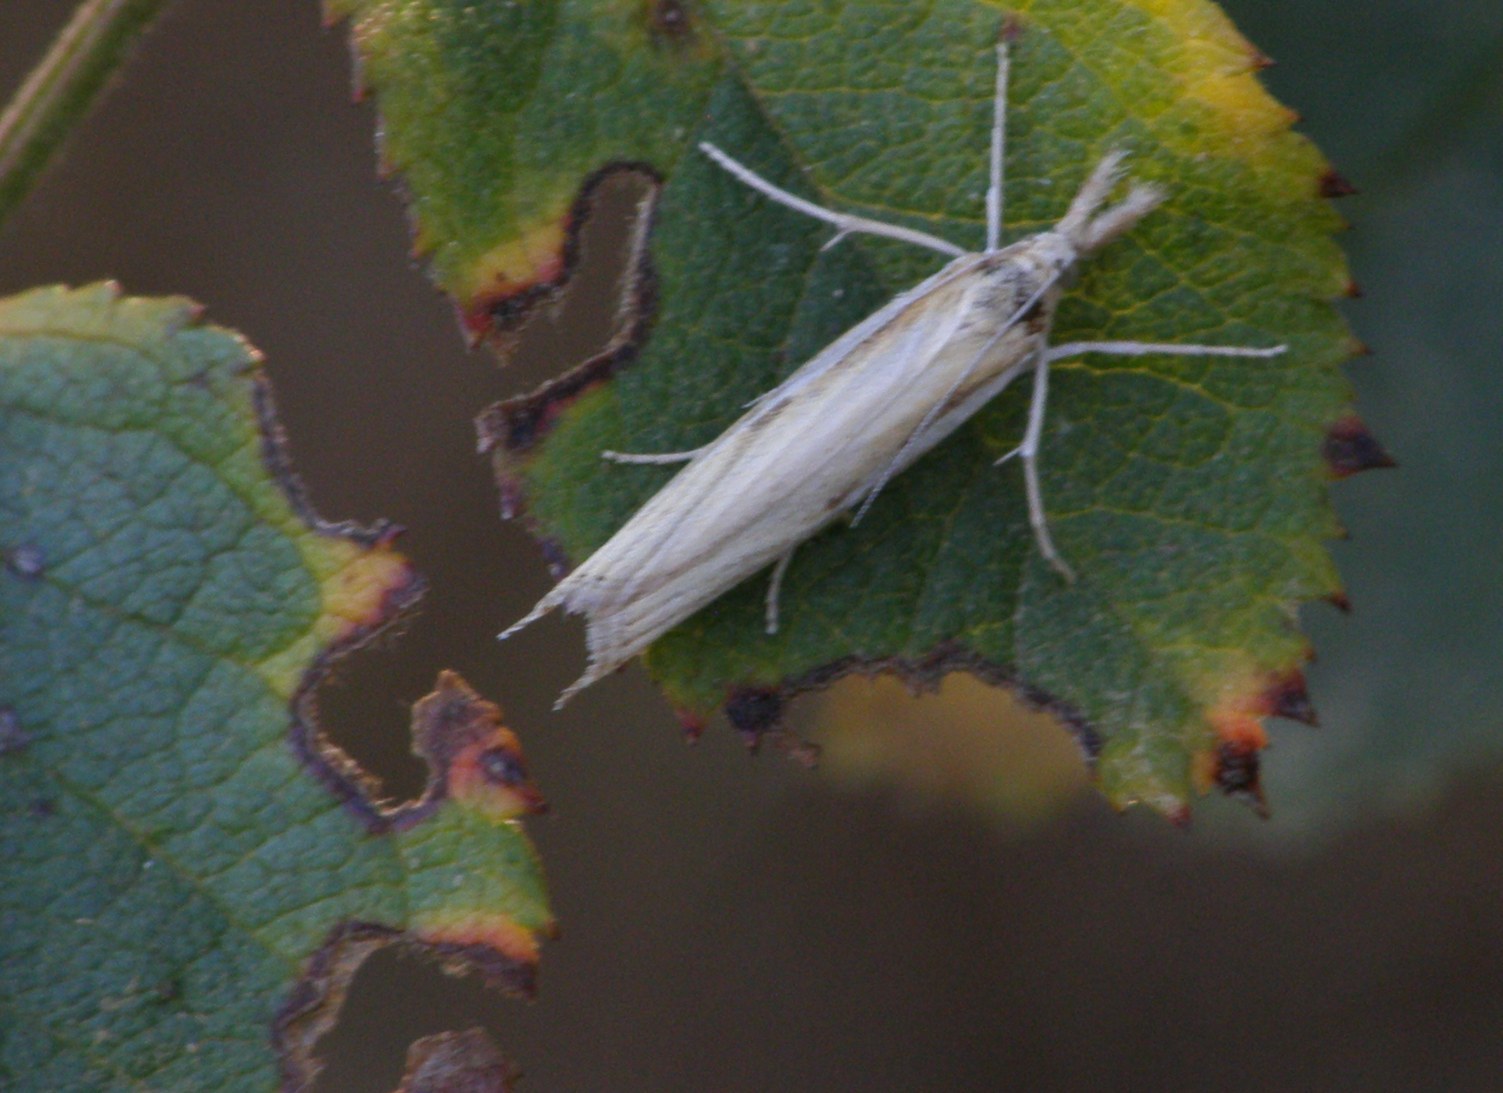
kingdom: Animalia
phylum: Arthropoda
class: Insecta
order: Lepidoptera
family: Crambidae
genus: Agriphila
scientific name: Agriphila tristellus
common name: Common grass-veneer
